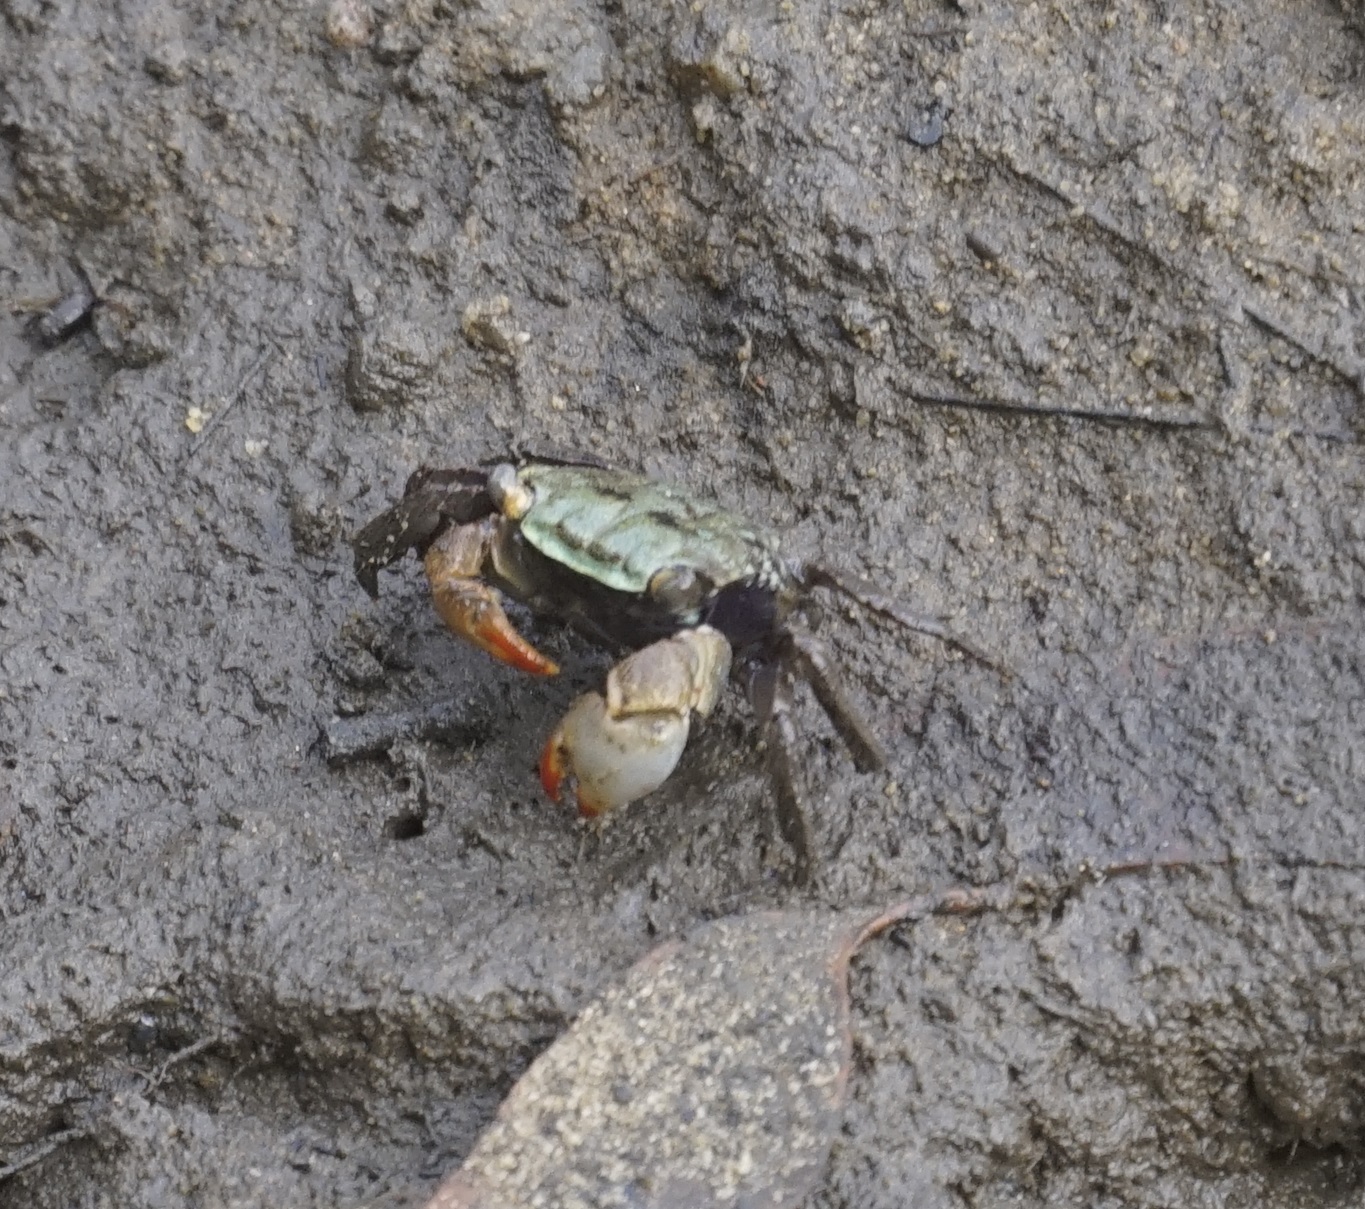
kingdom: Animalia
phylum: Arthropoda
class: Malacostraca
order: Decapoda
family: Sesarmidae
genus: Parasesarma
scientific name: Parasesarma erythodactylum
